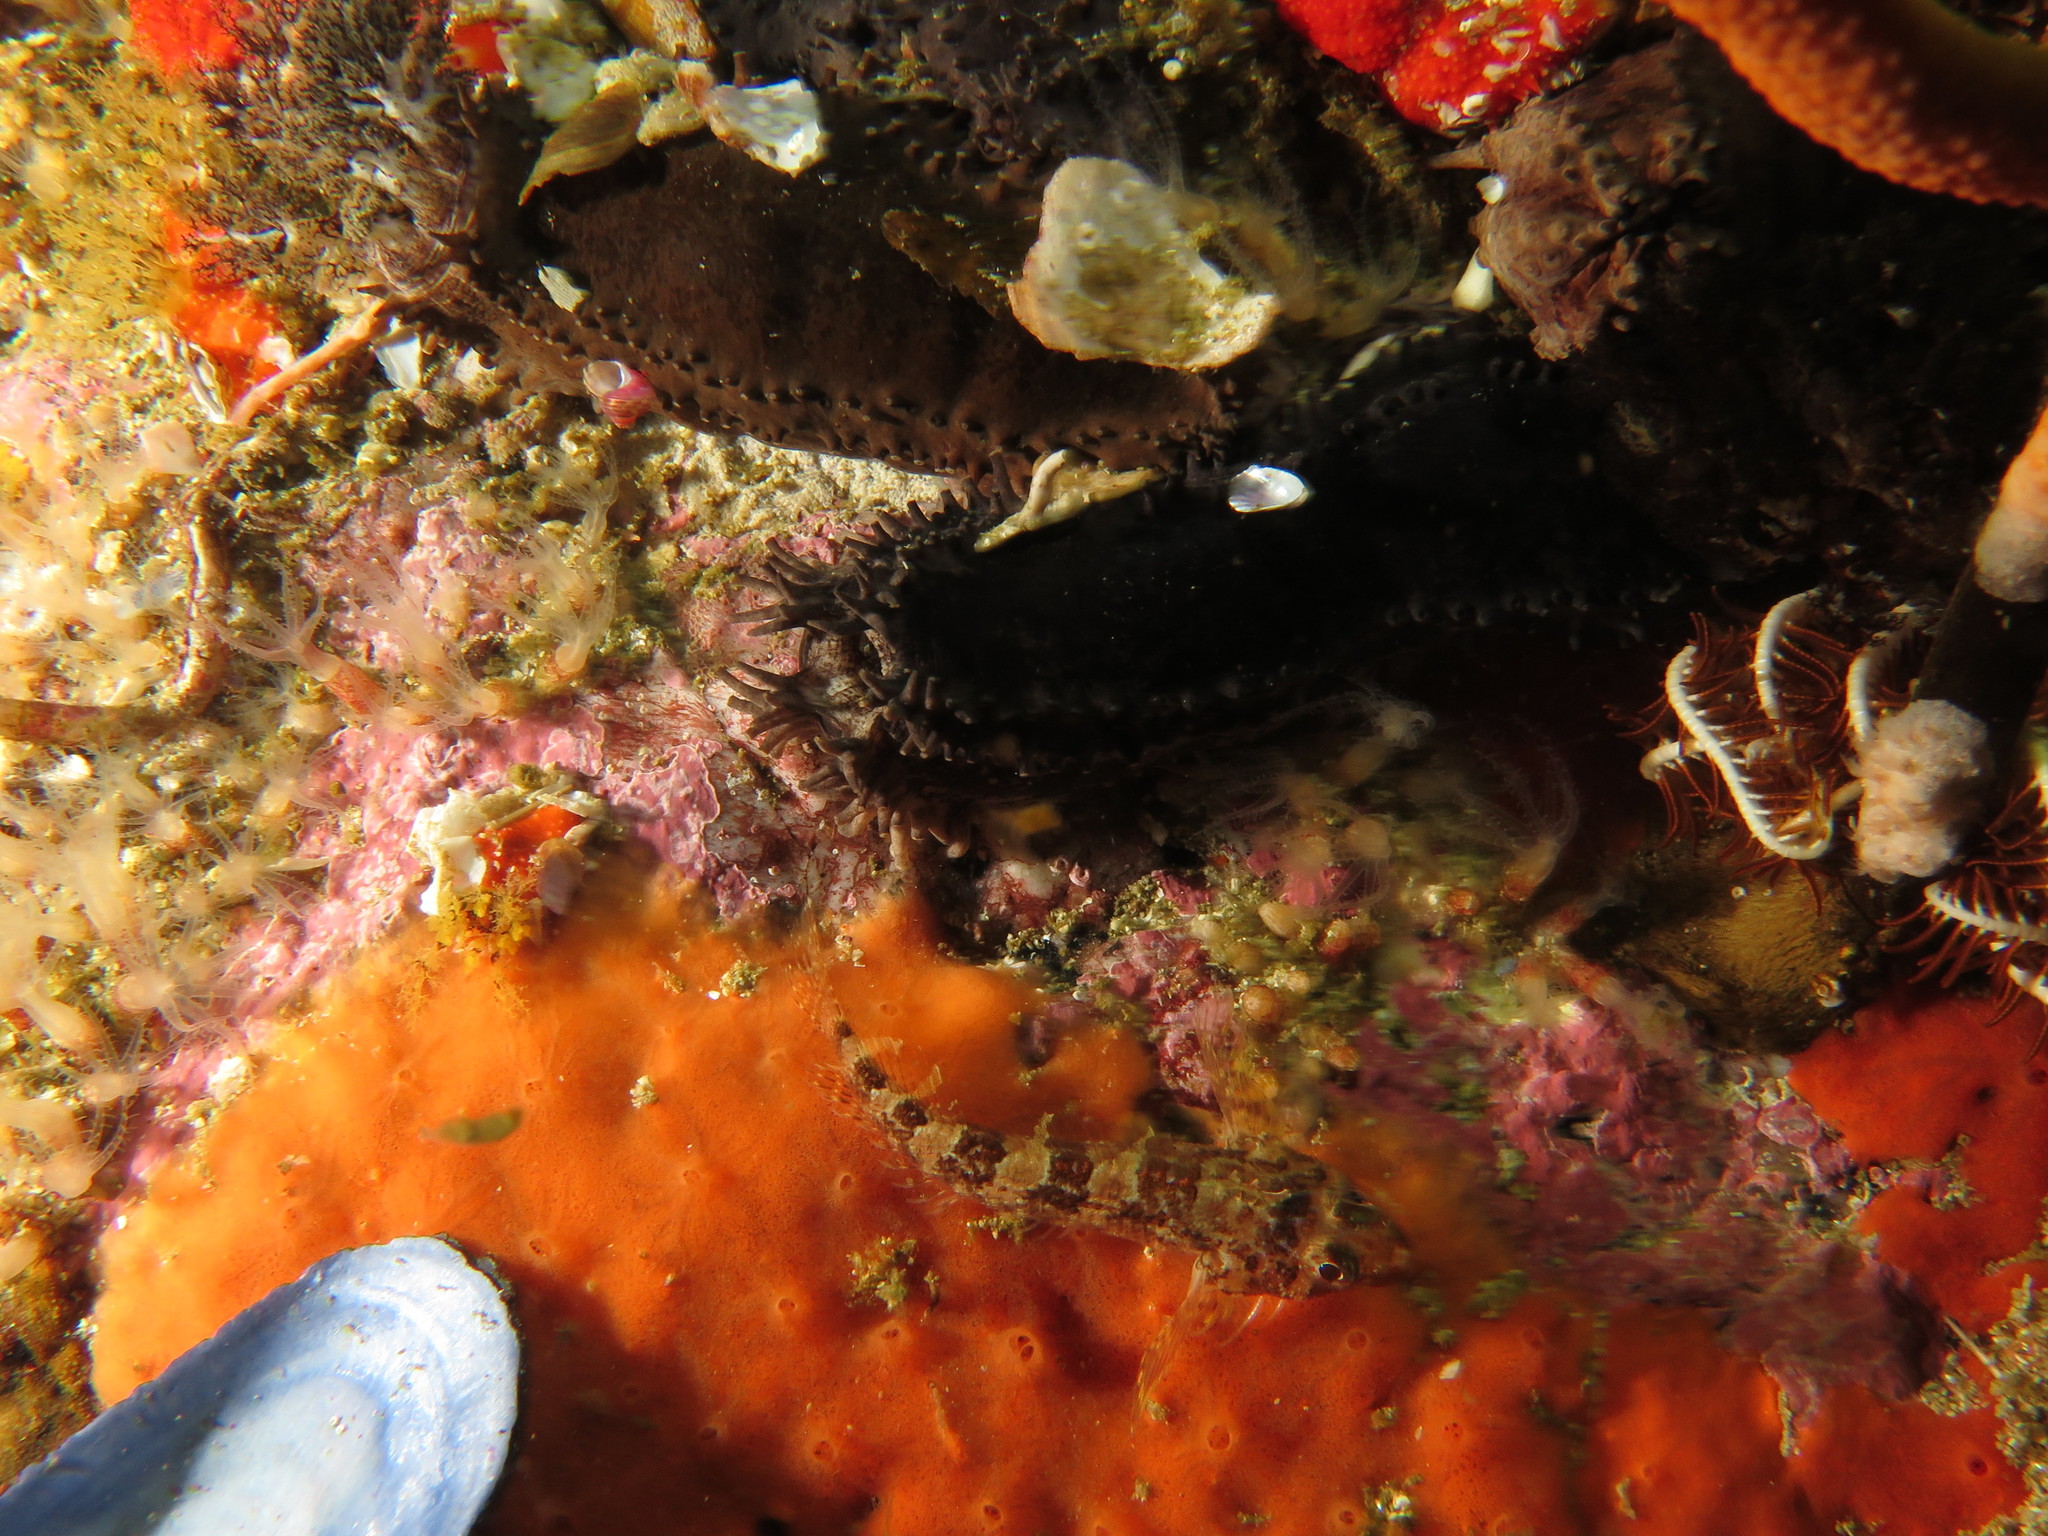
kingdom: Animalia
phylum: Chordata
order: Perciformes
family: Tripterygiidae
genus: Cremnochorites
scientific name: Cremnochorites capensis
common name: Cape triplefin
